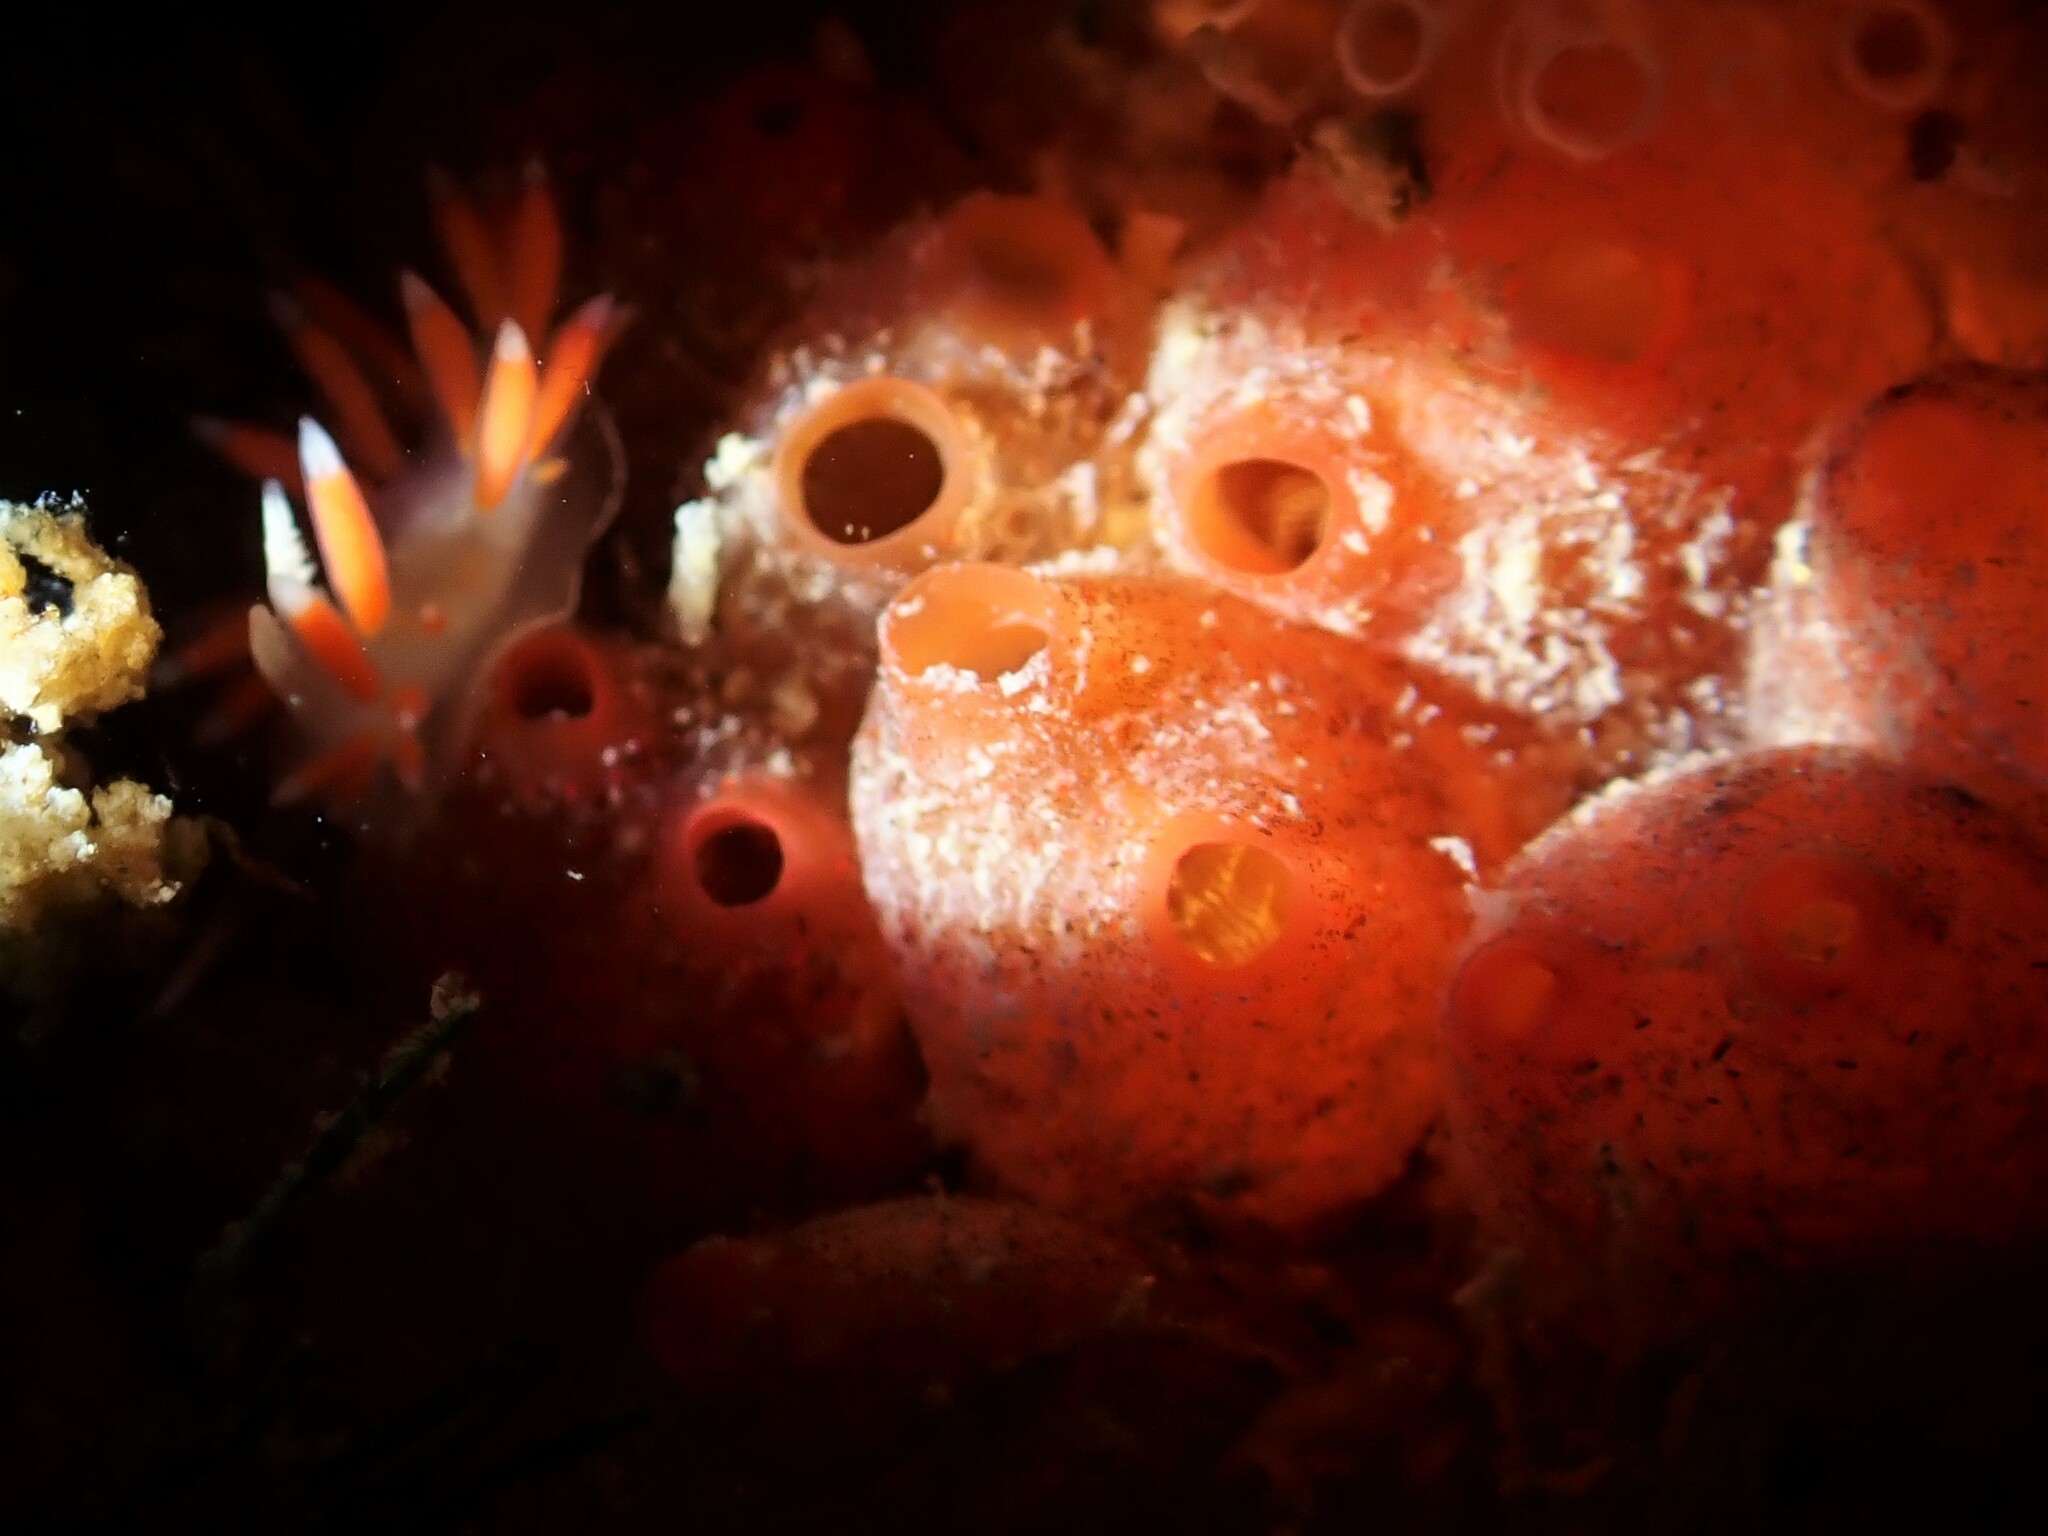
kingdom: Animalia
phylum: Chordata
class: Ascidiacea
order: Stolidobranchia
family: Styelidae
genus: Metandrocarpa
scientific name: Metandrocarpa thilenii
